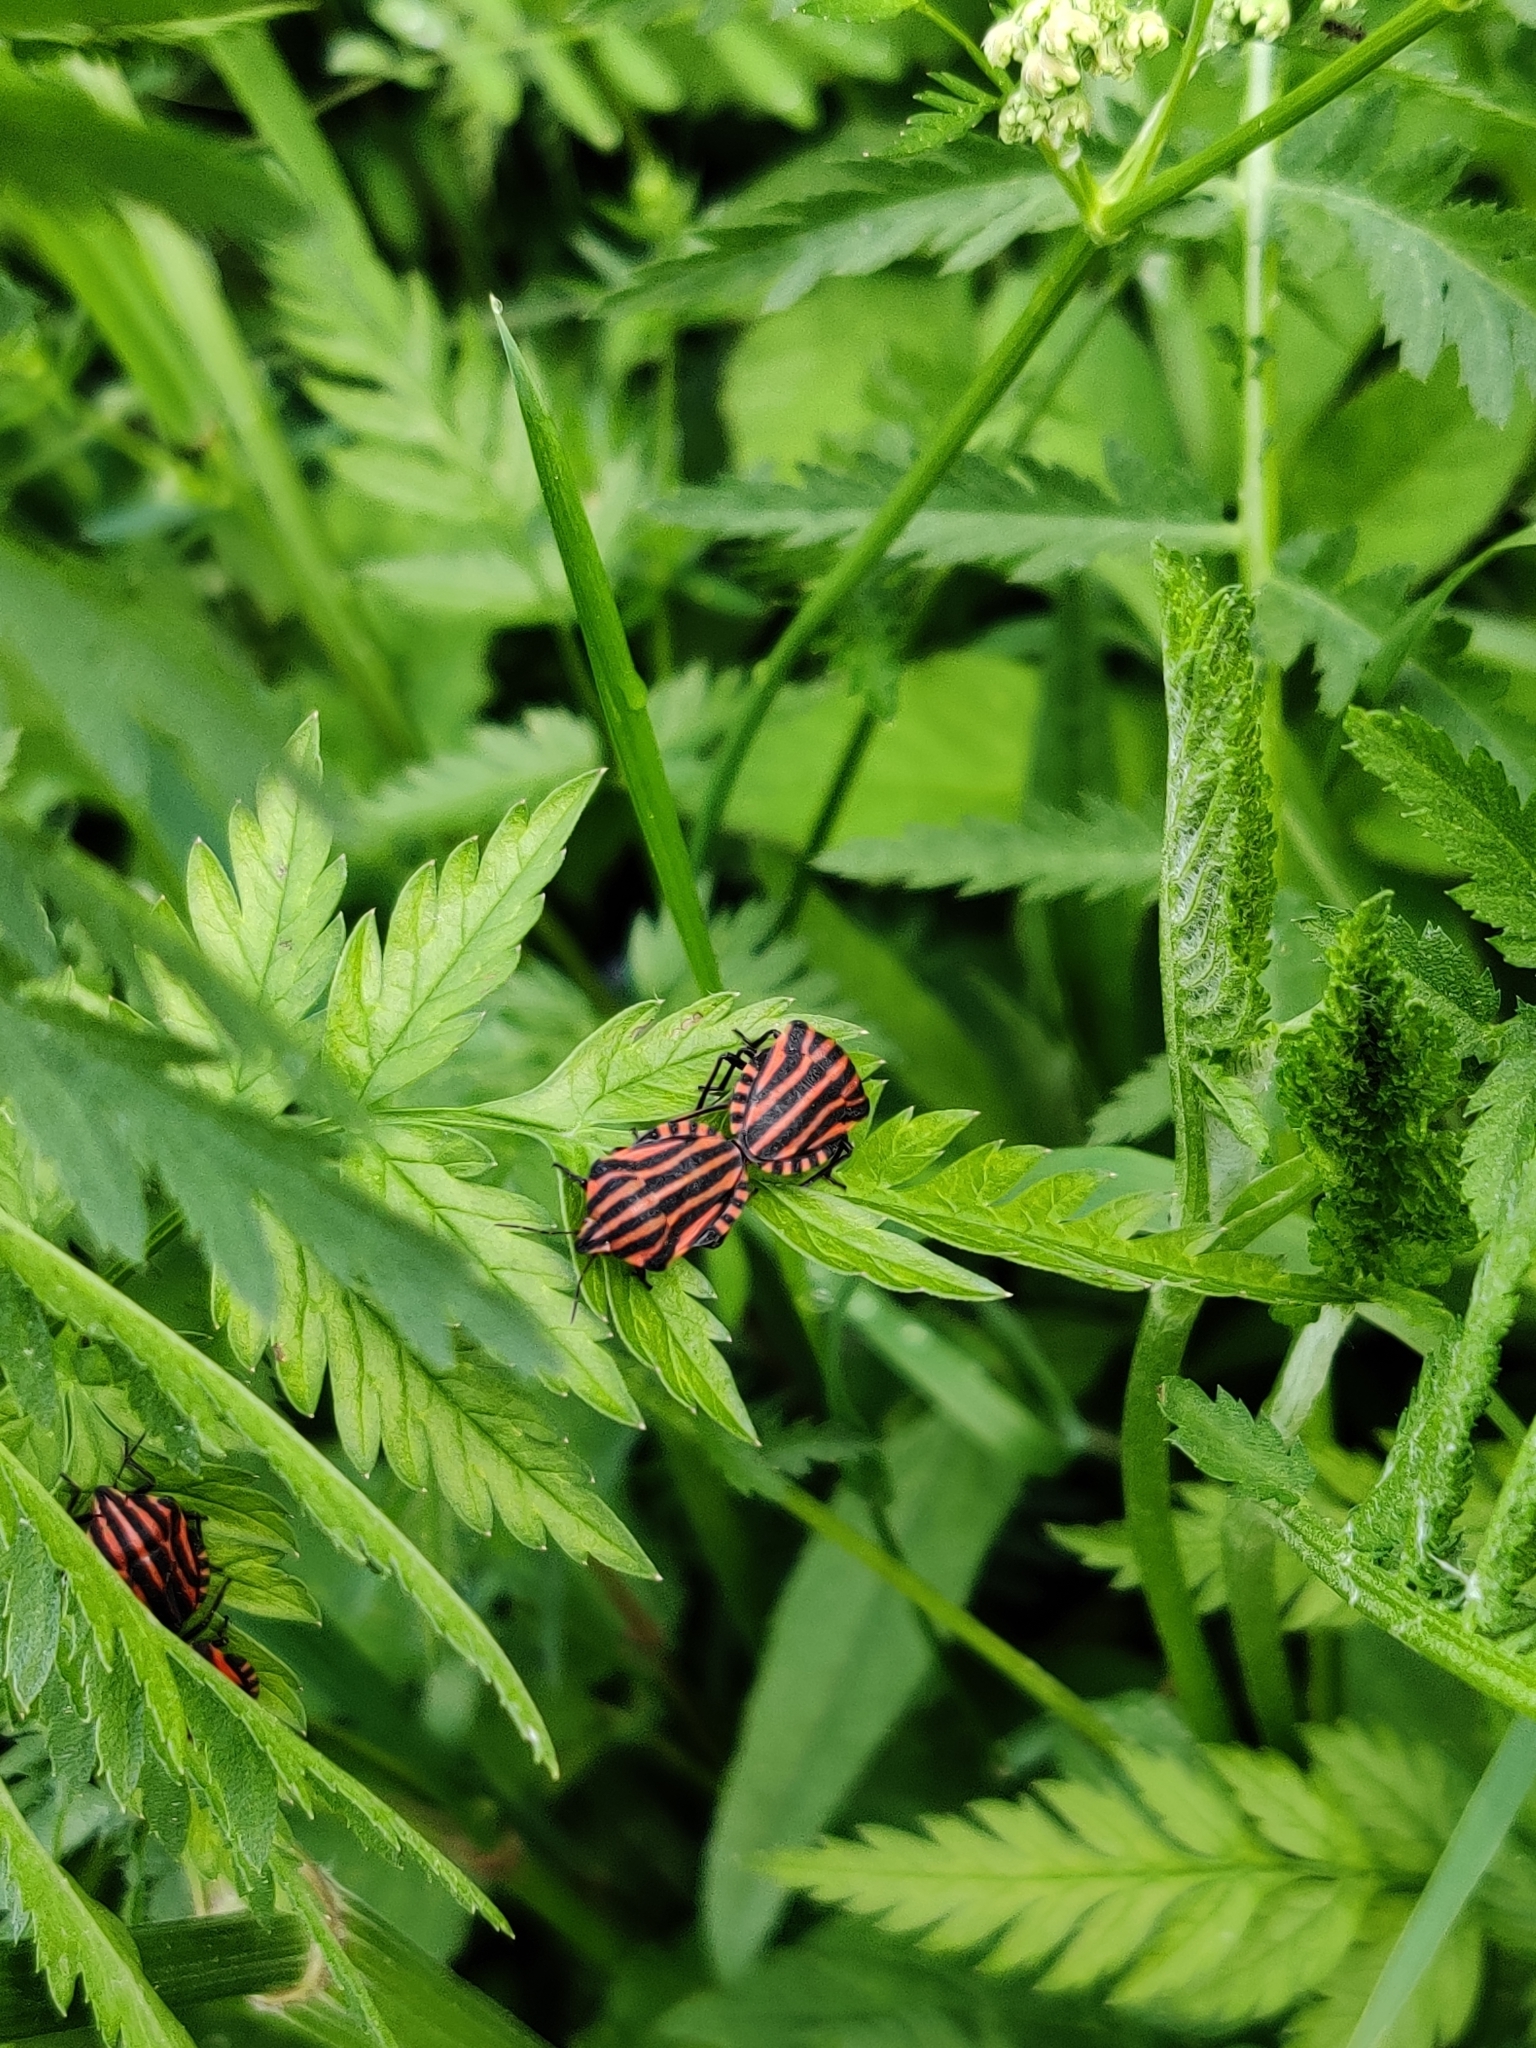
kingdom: Animalia
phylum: Arthropoda
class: Insecta
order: Hemiptera
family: Pentatomidae
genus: Graphosoma
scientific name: Graphosoma italicum
